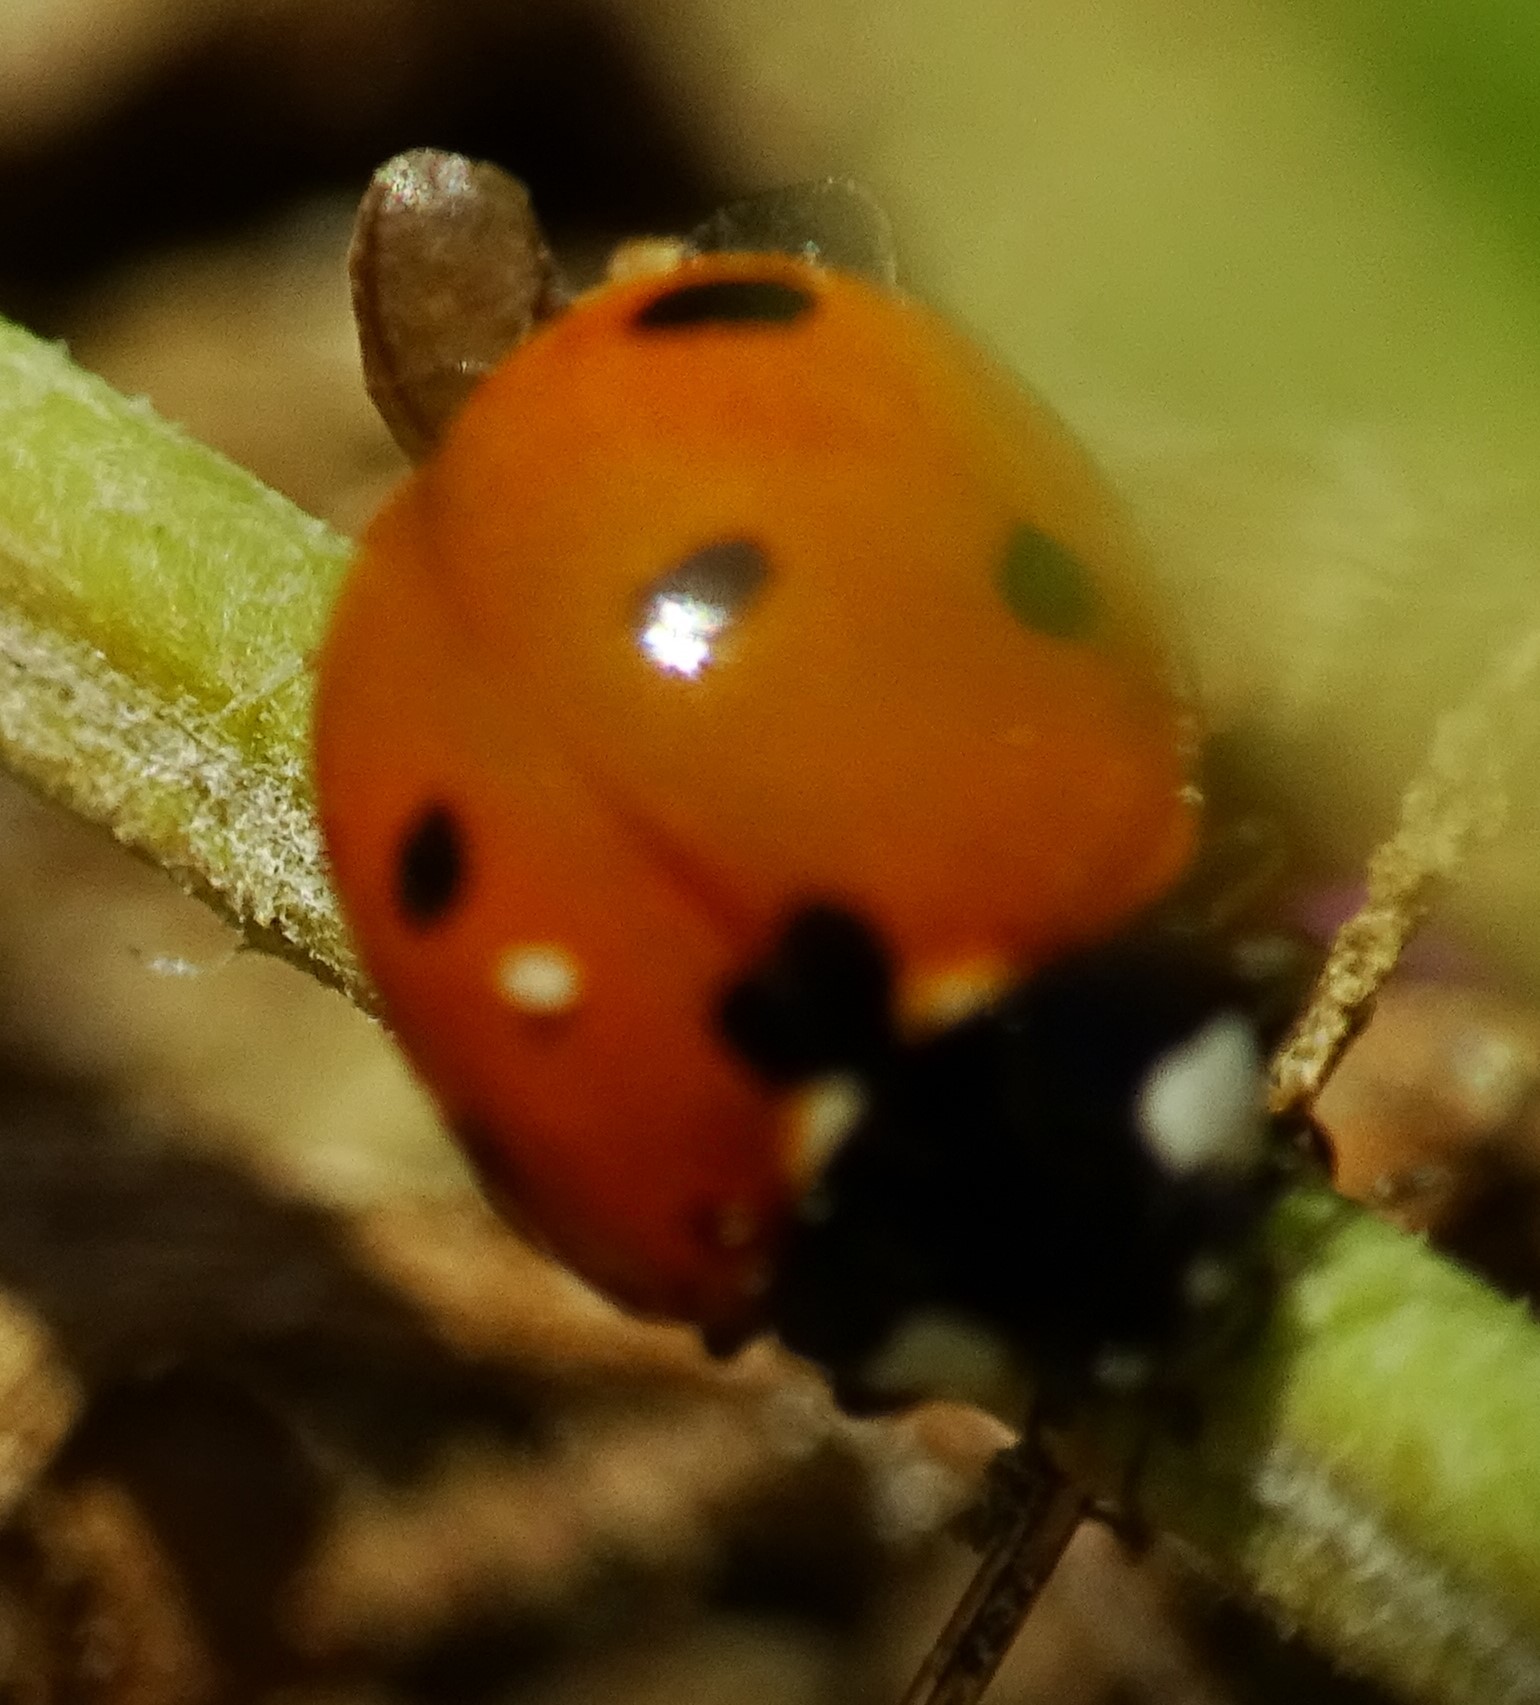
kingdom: Animalia
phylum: Arthropoda
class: Insecta
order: Coleoptera
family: Coccinellidae
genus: Coccinella
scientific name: Coccinella septempunctata
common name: Sevenspotted lady beetle
